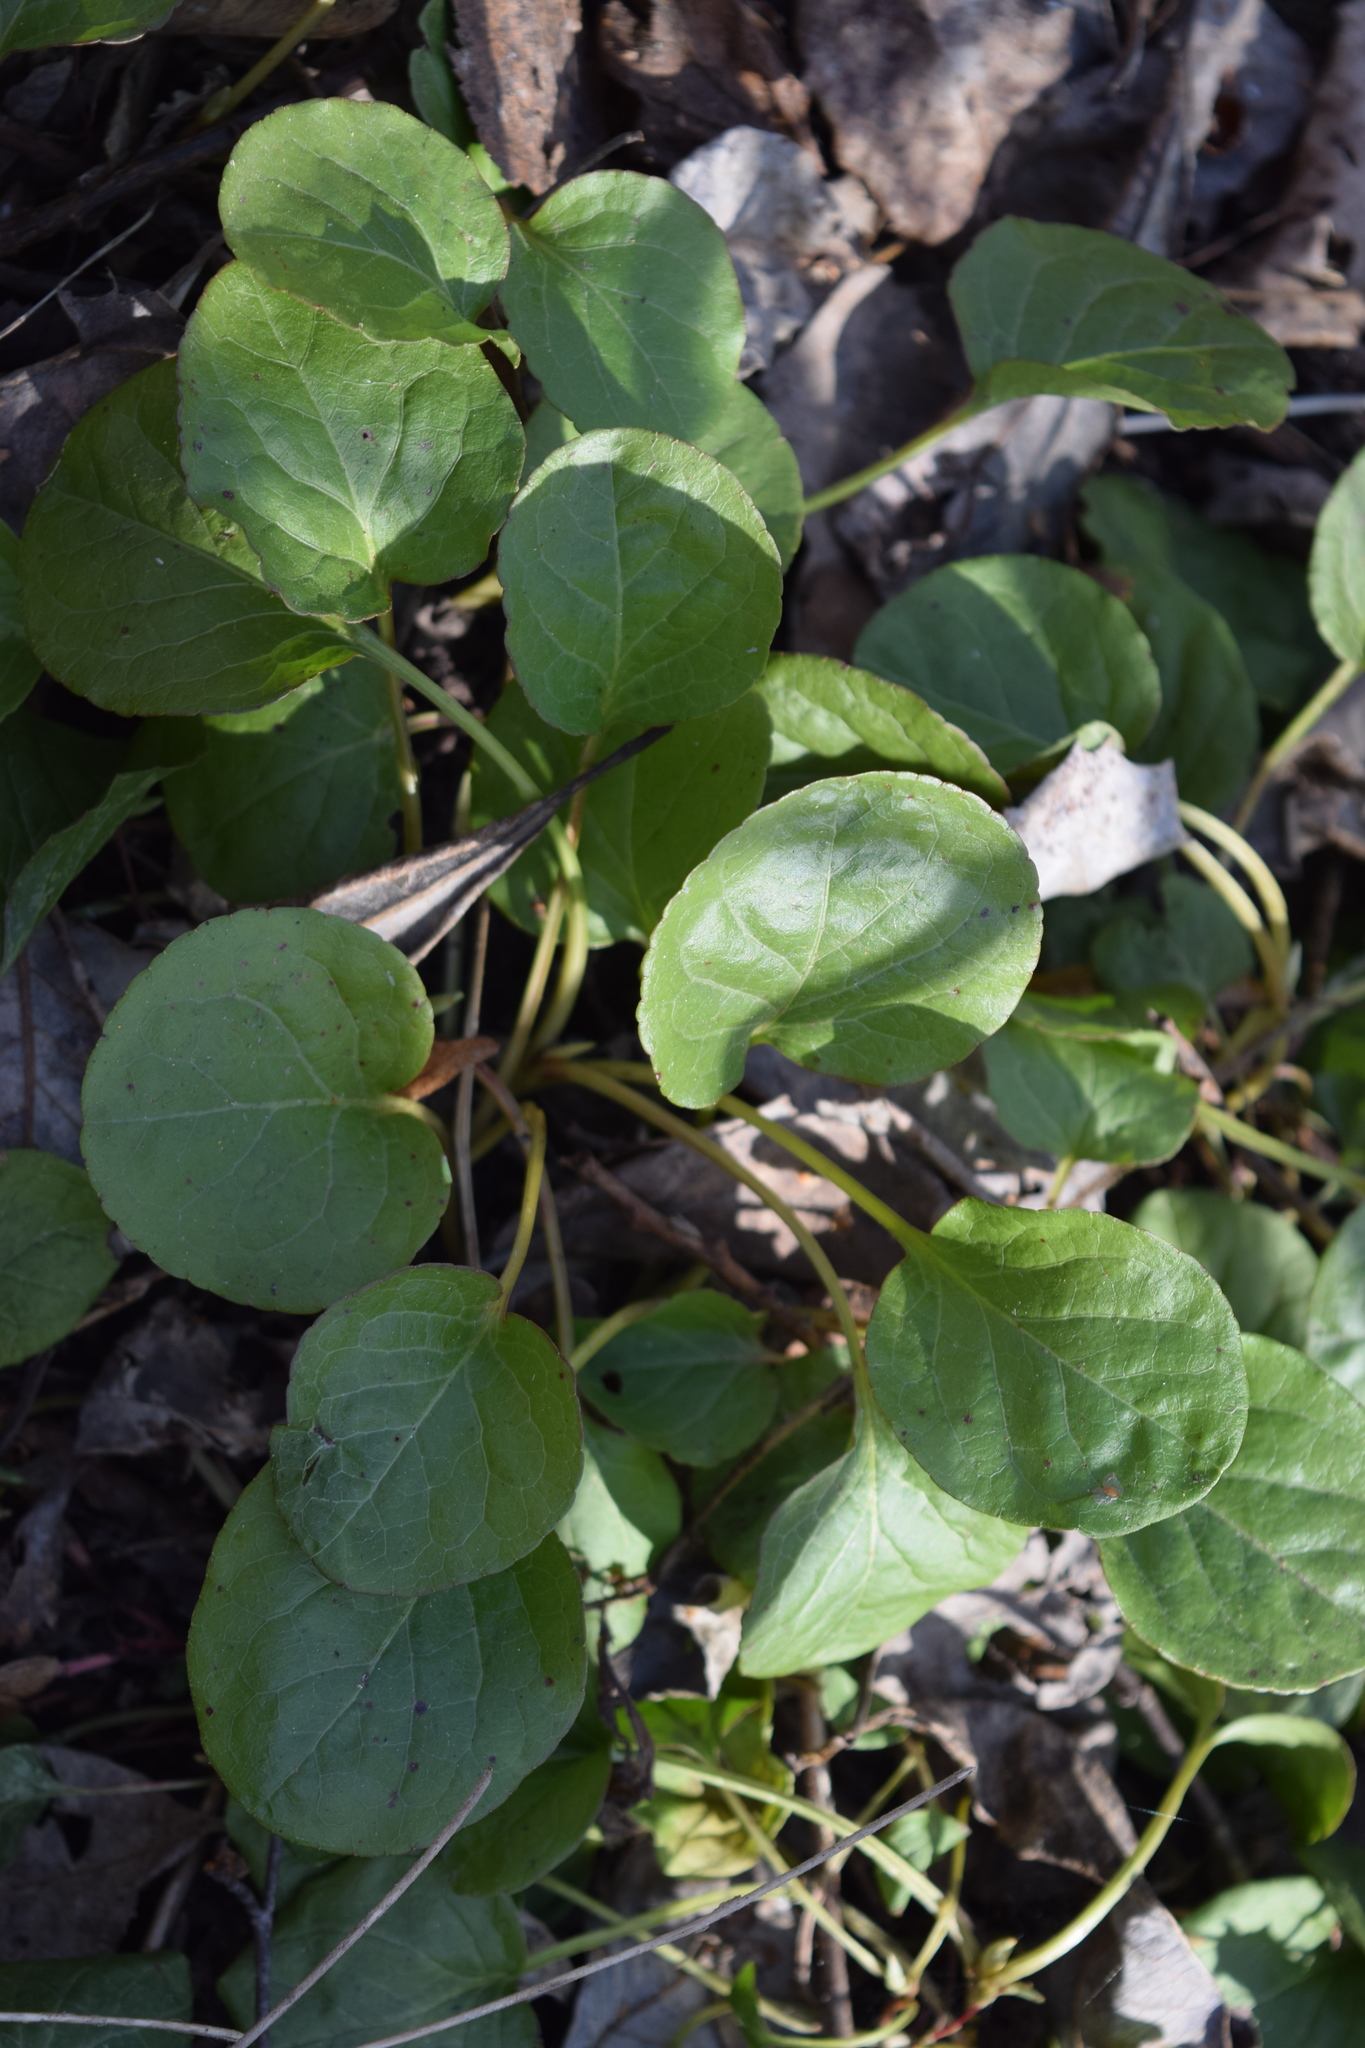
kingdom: Plantae
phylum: Tracheophyta
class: Magnoliopsida
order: Ericales
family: Ericaceae
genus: Pyrola
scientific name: Pyrola rotundifolia
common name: Round-leaved wintergreen
